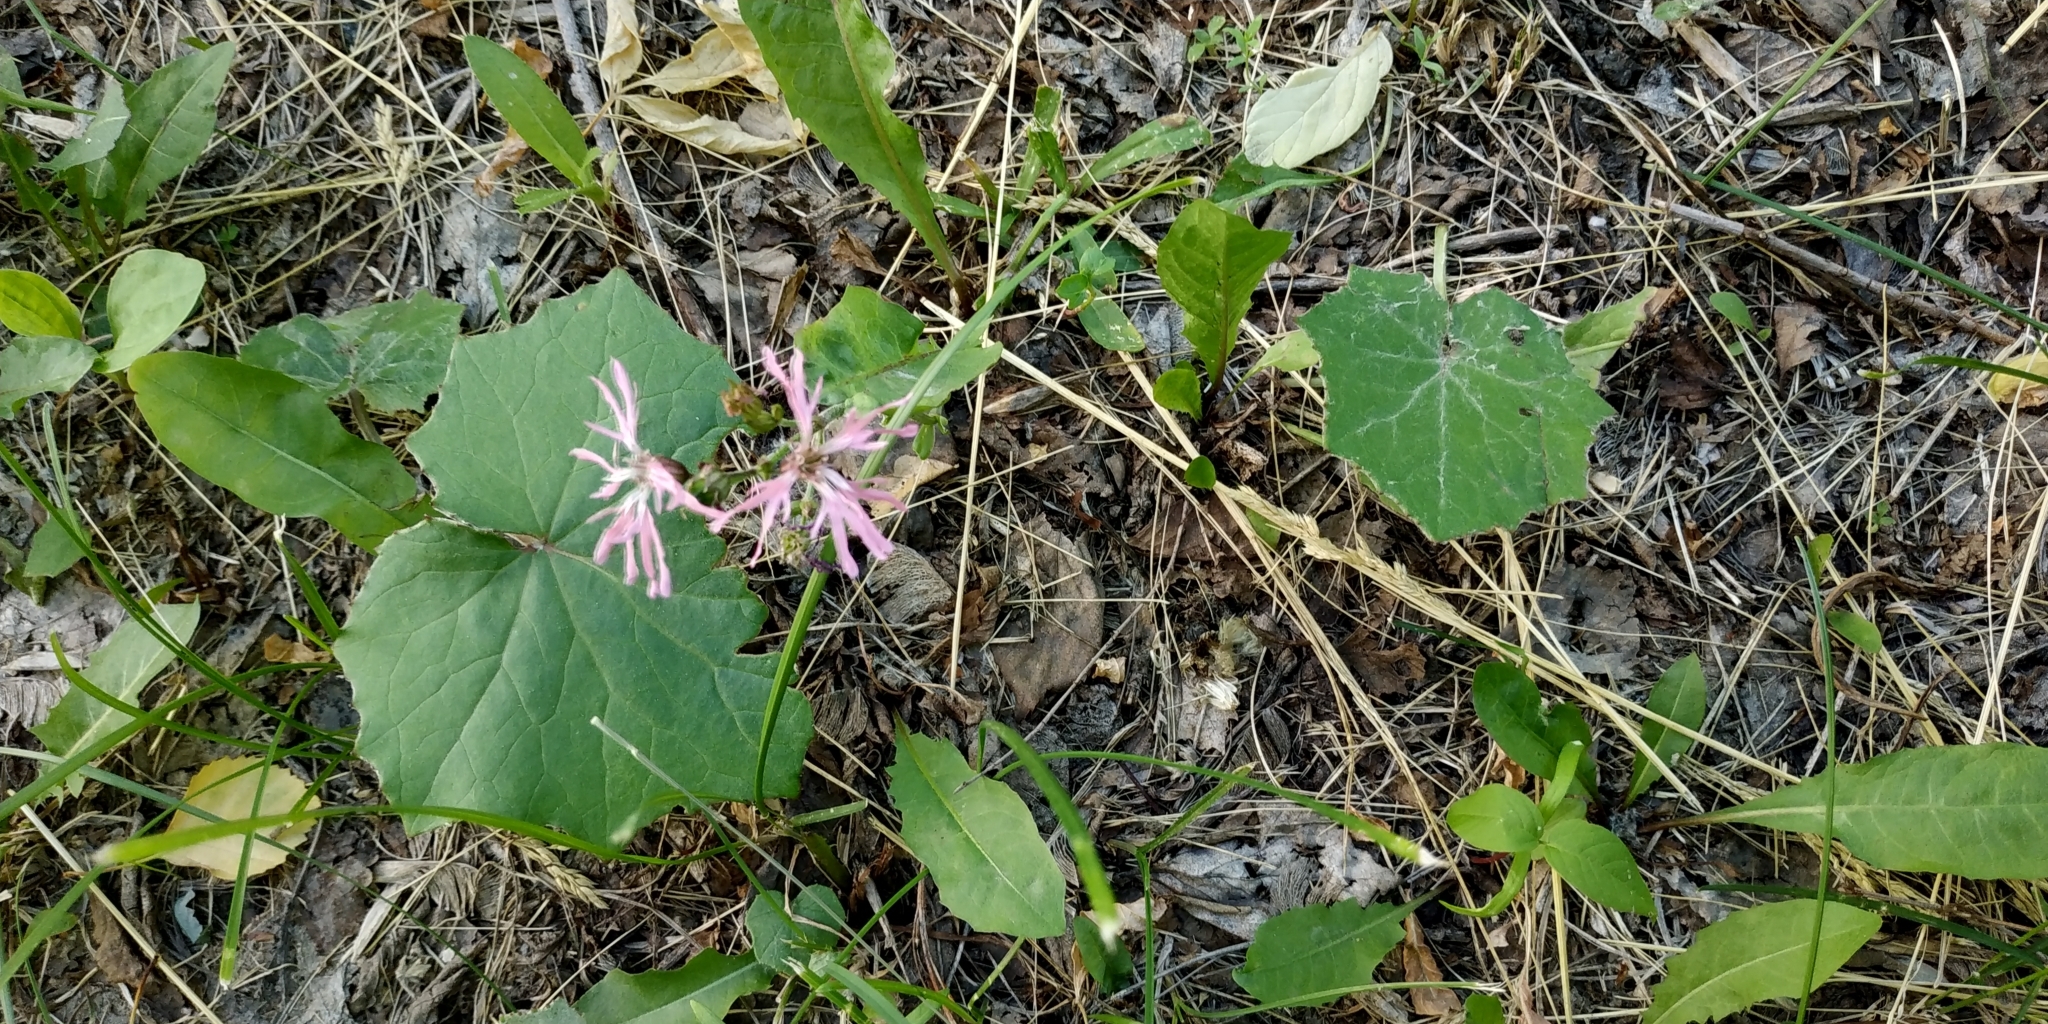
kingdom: Plantae
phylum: Tracheophyta
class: Magnoliopsida
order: Caryophyllales
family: Caryophyllaceae
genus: Silene
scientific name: Silene flos-cuculi
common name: Ragged-robin
